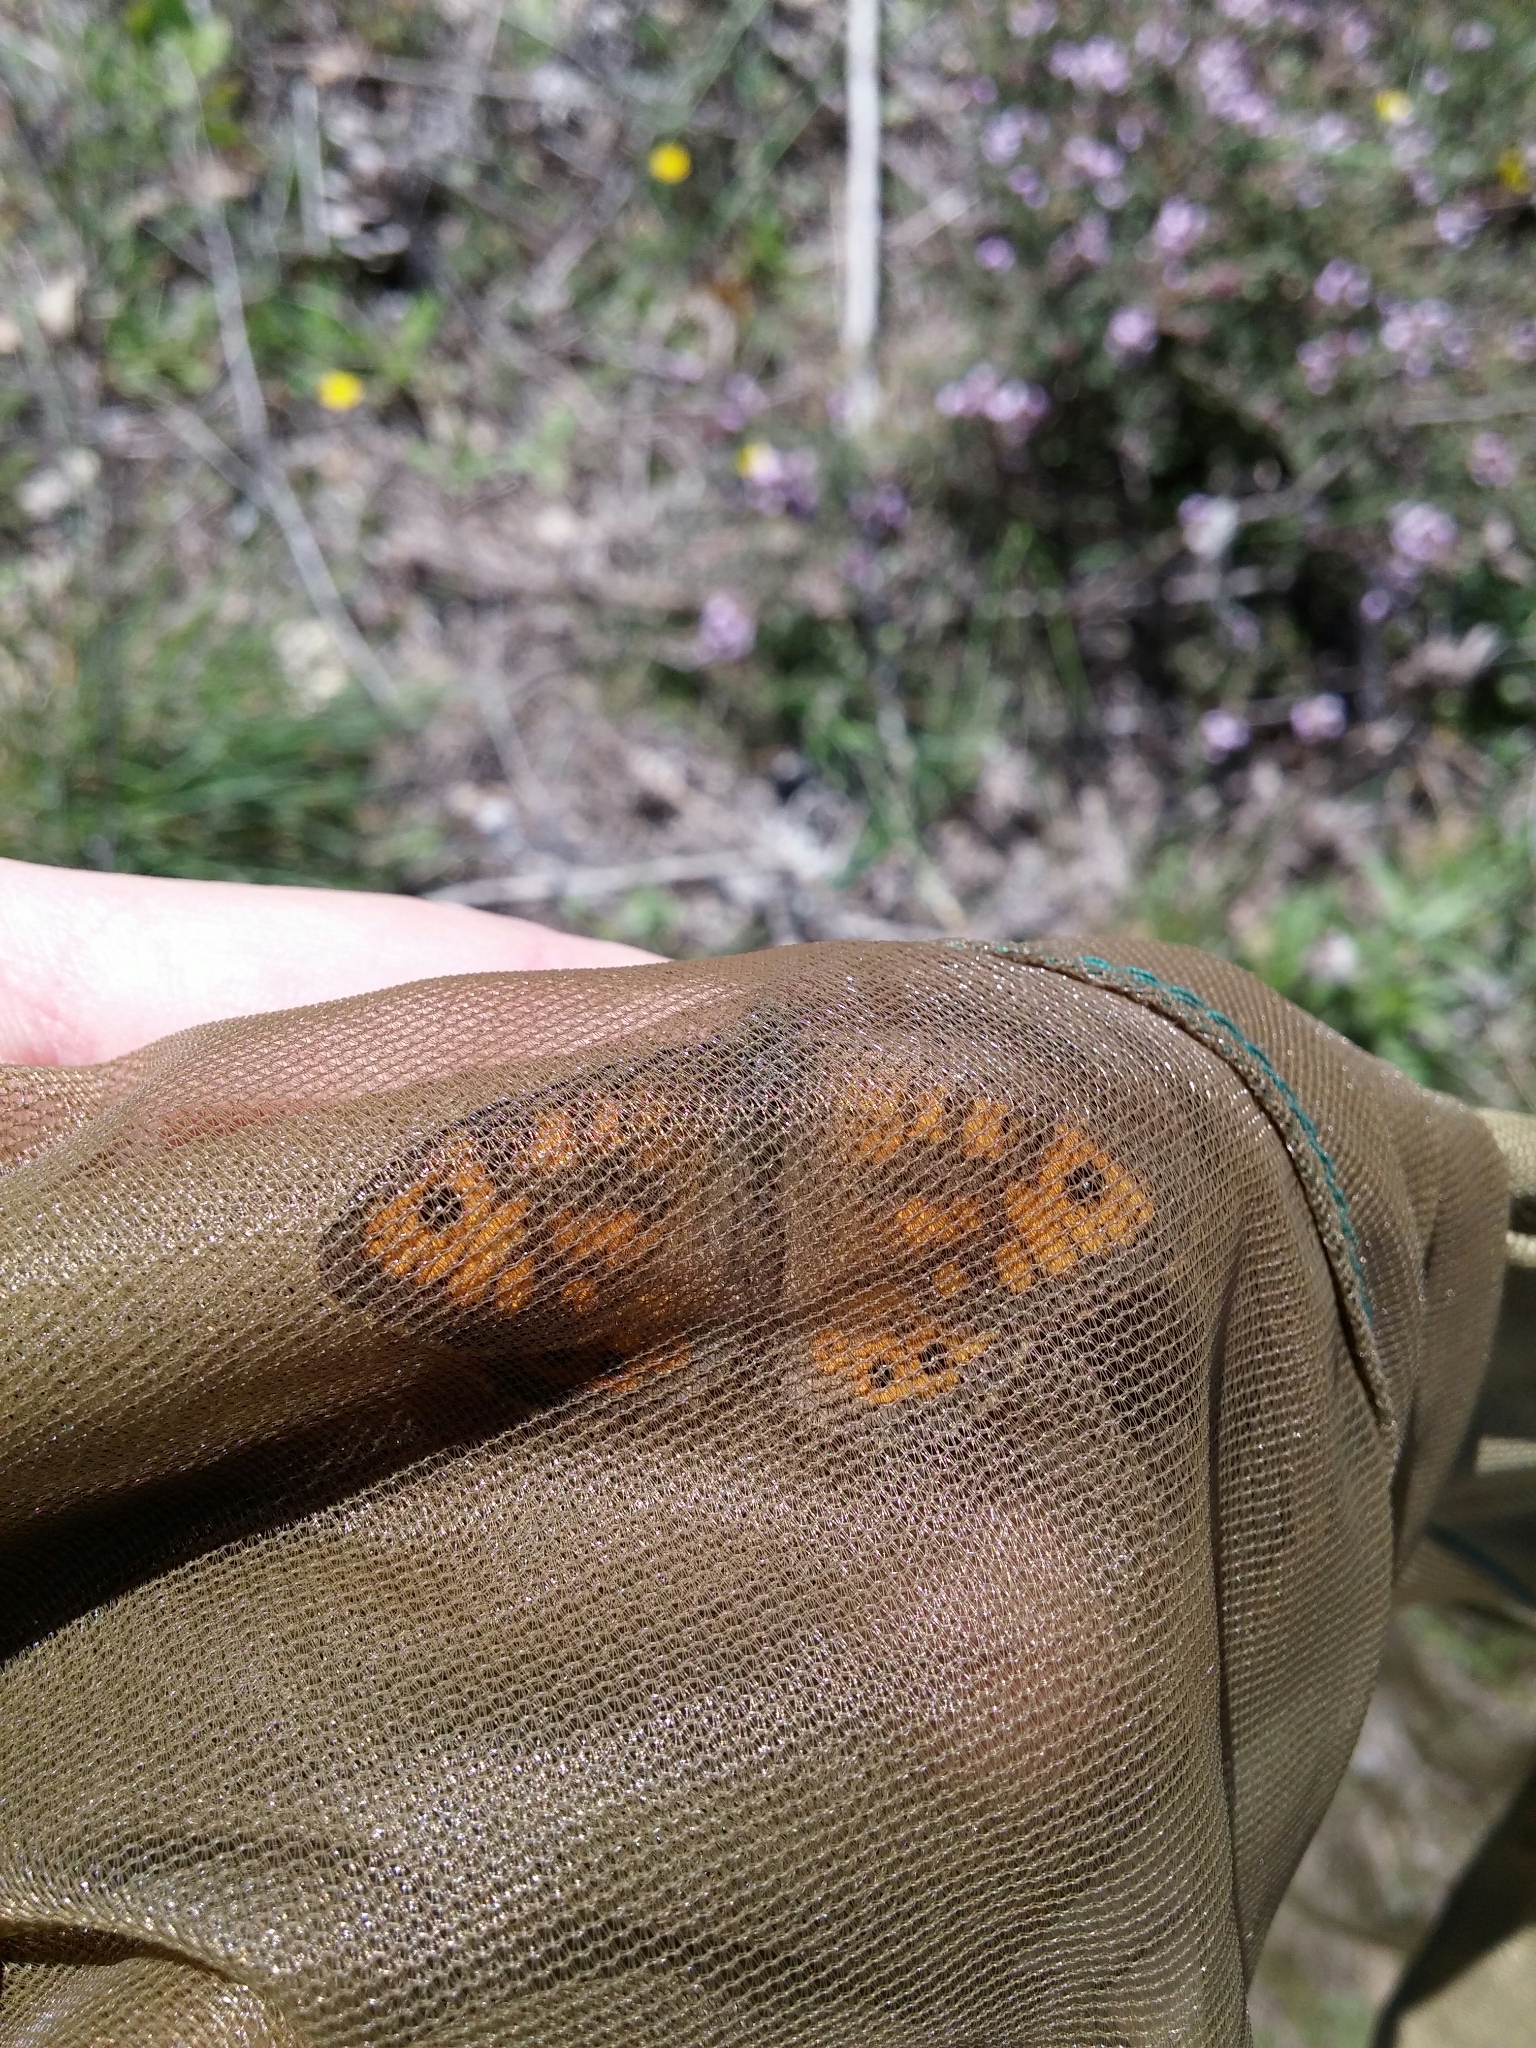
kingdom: Animalia
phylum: Arthropoda
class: Insecta
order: Lepidoptera
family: Nymphalidae
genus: Pararge
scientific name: Pararge Lasiommata megera
